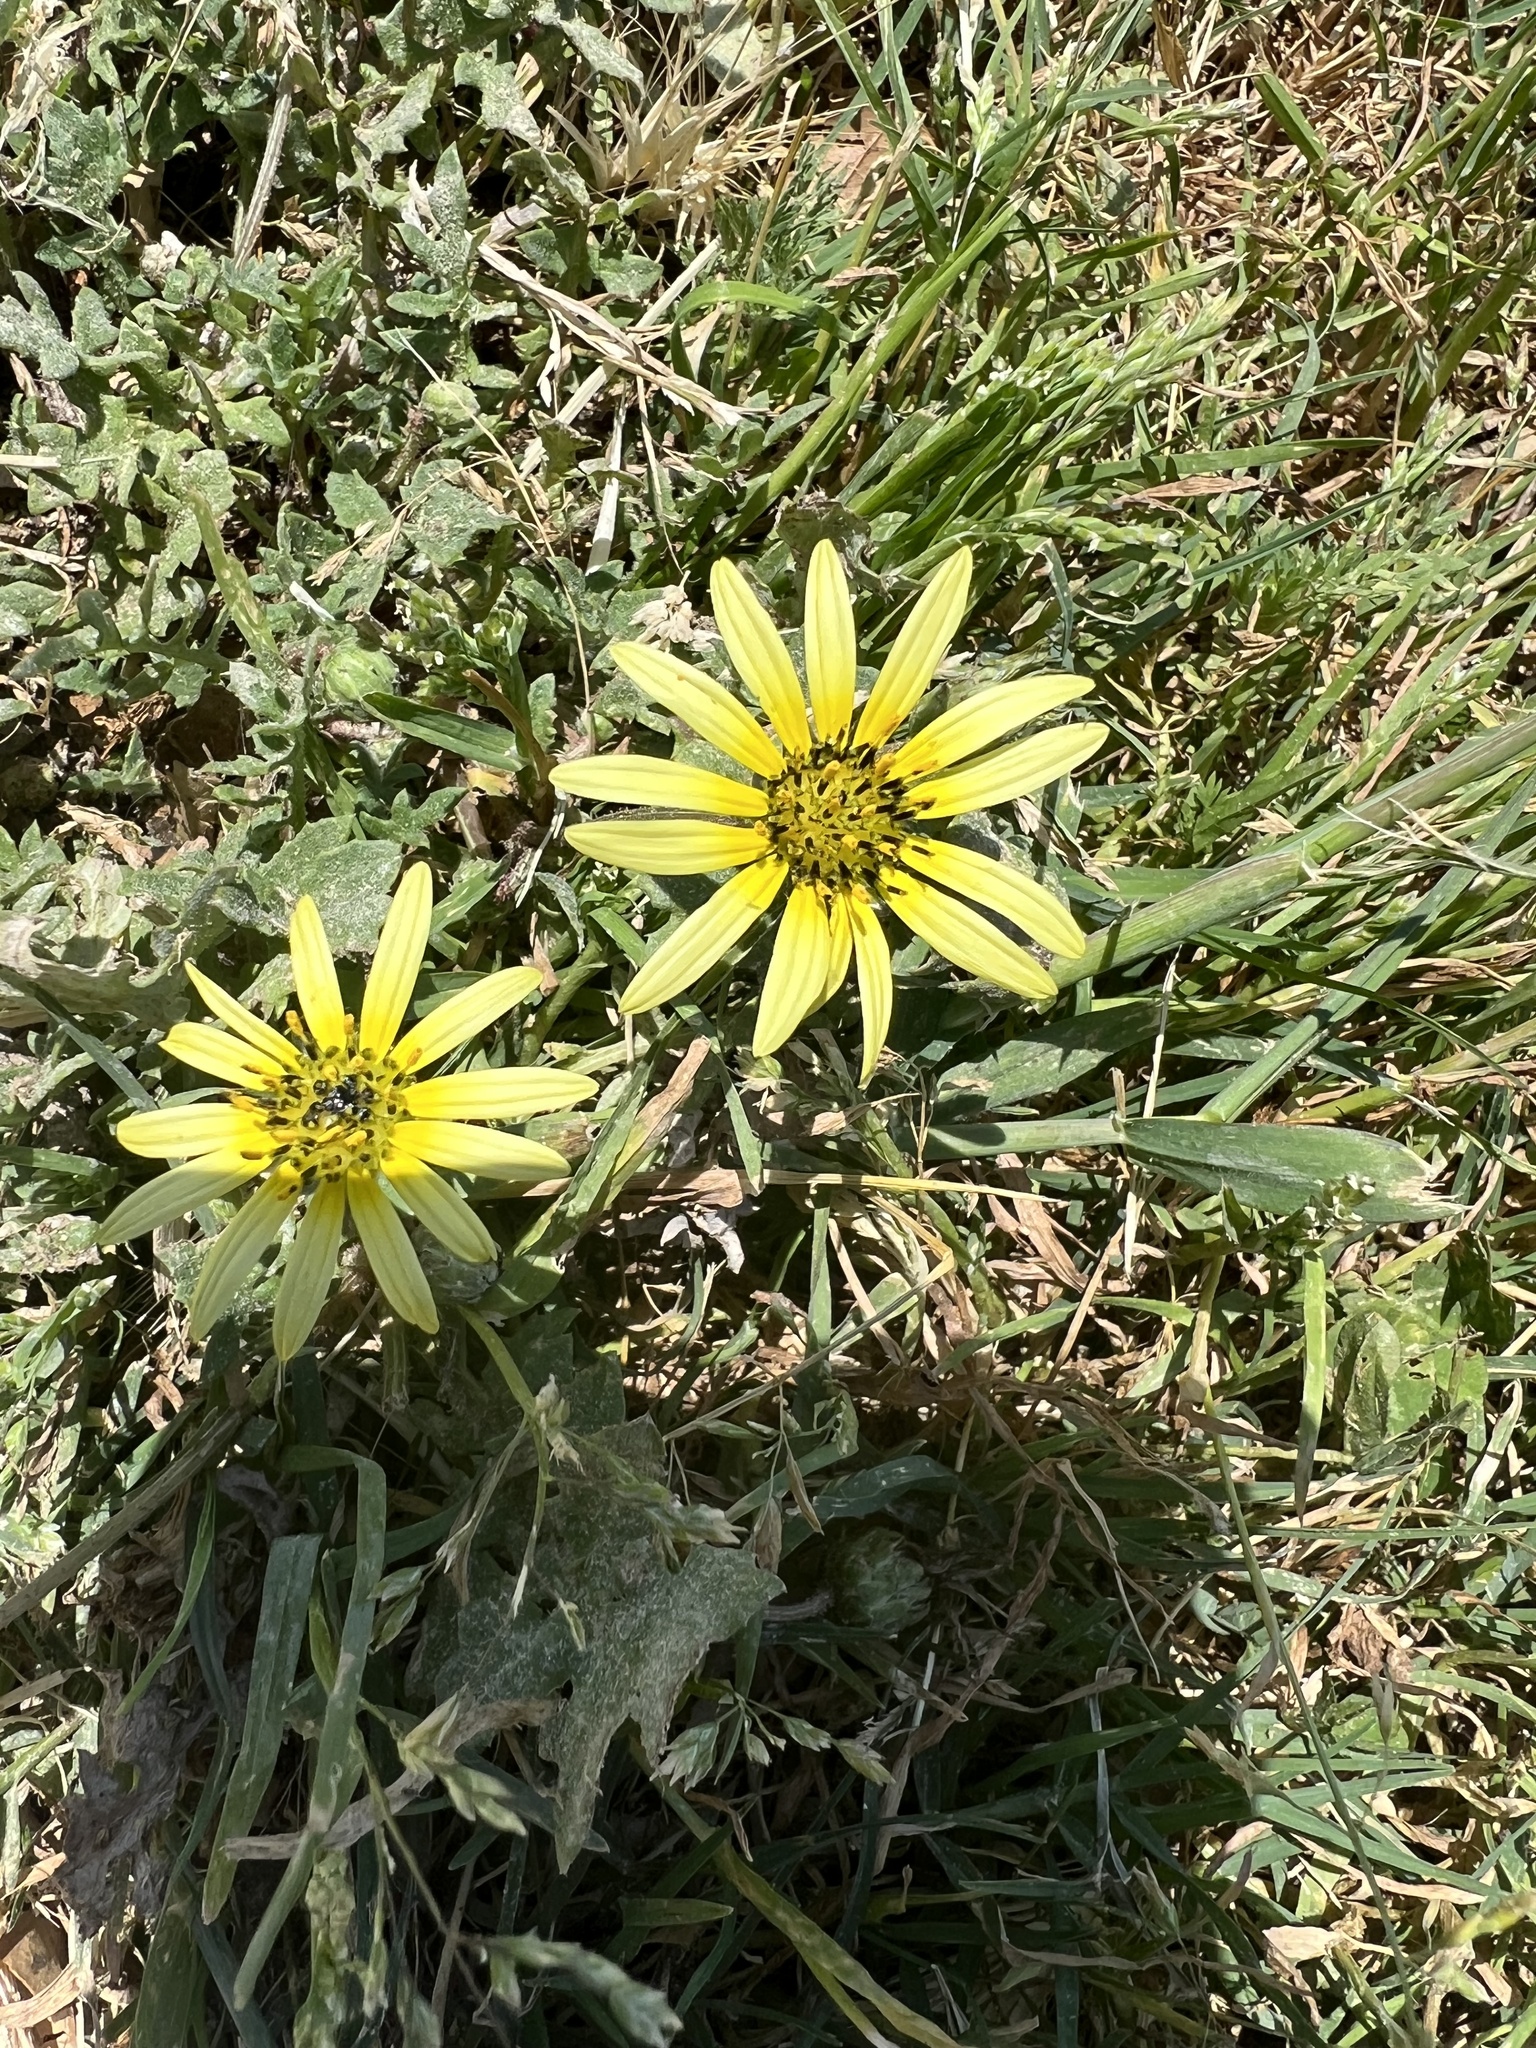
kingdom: Plantae
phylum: Tracheophyta
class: Magnoliopsida
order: Asterales
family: Asteraceae
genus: Arctotheca
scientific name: Arctotheca calendula
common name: Capeweed
